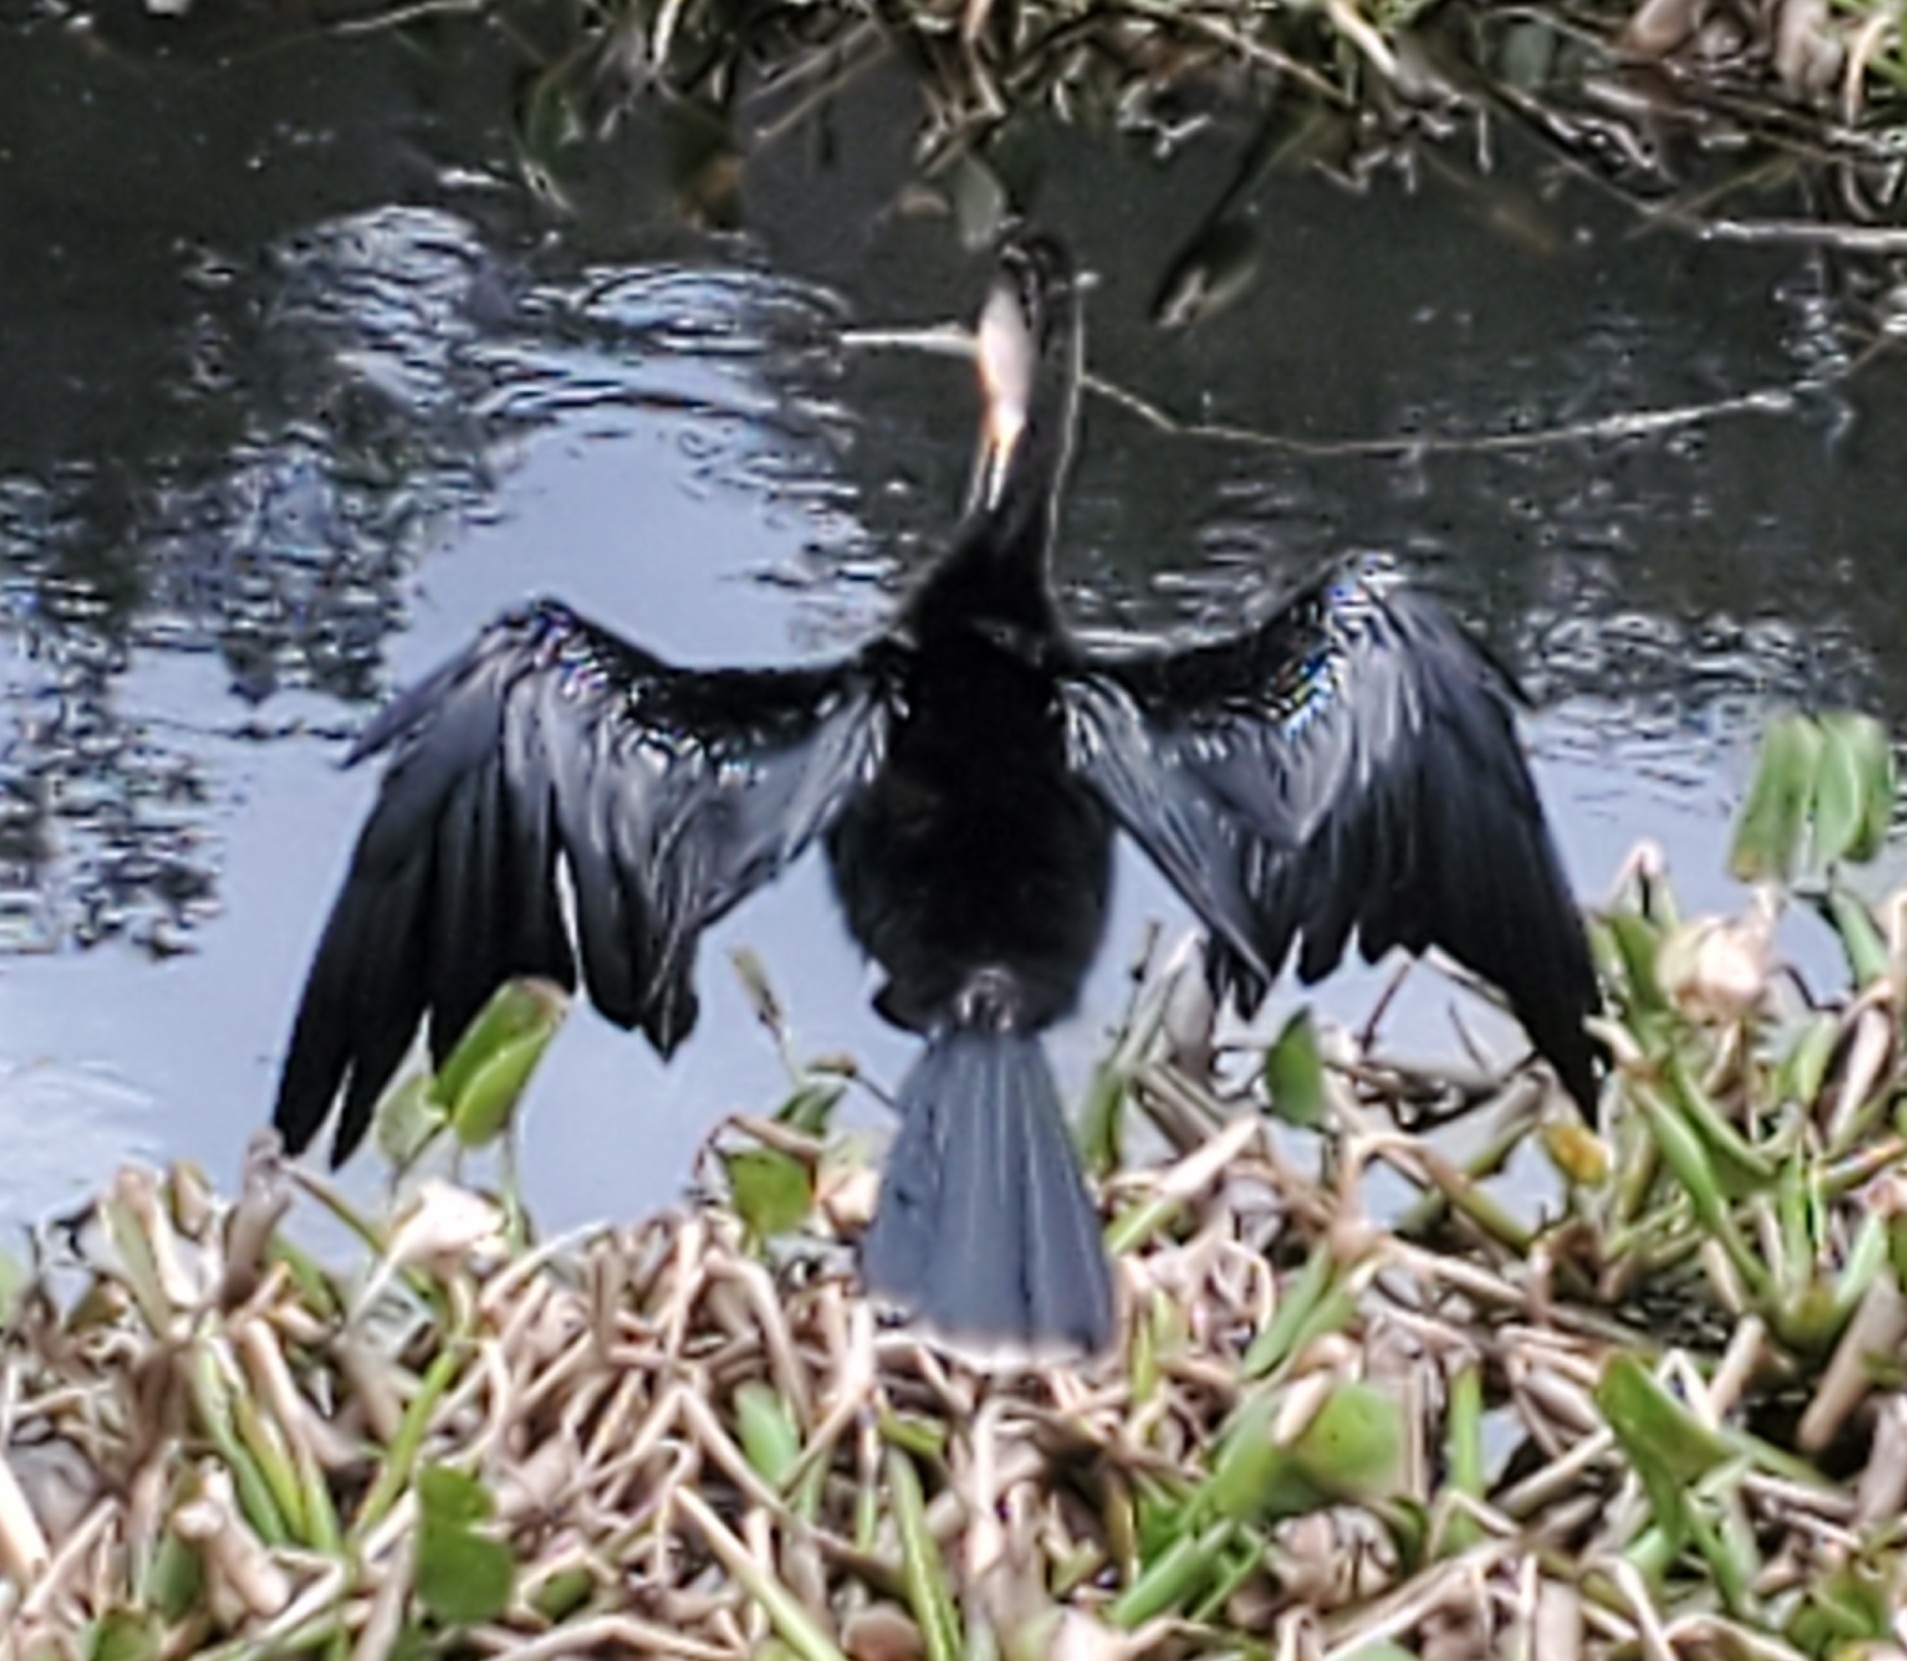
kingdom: Animalia
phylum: Chordata
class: Aves
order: Suliformes
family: Anhingidae
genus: Anhinga
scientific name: Anhinga anhinga
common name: Anhinga
